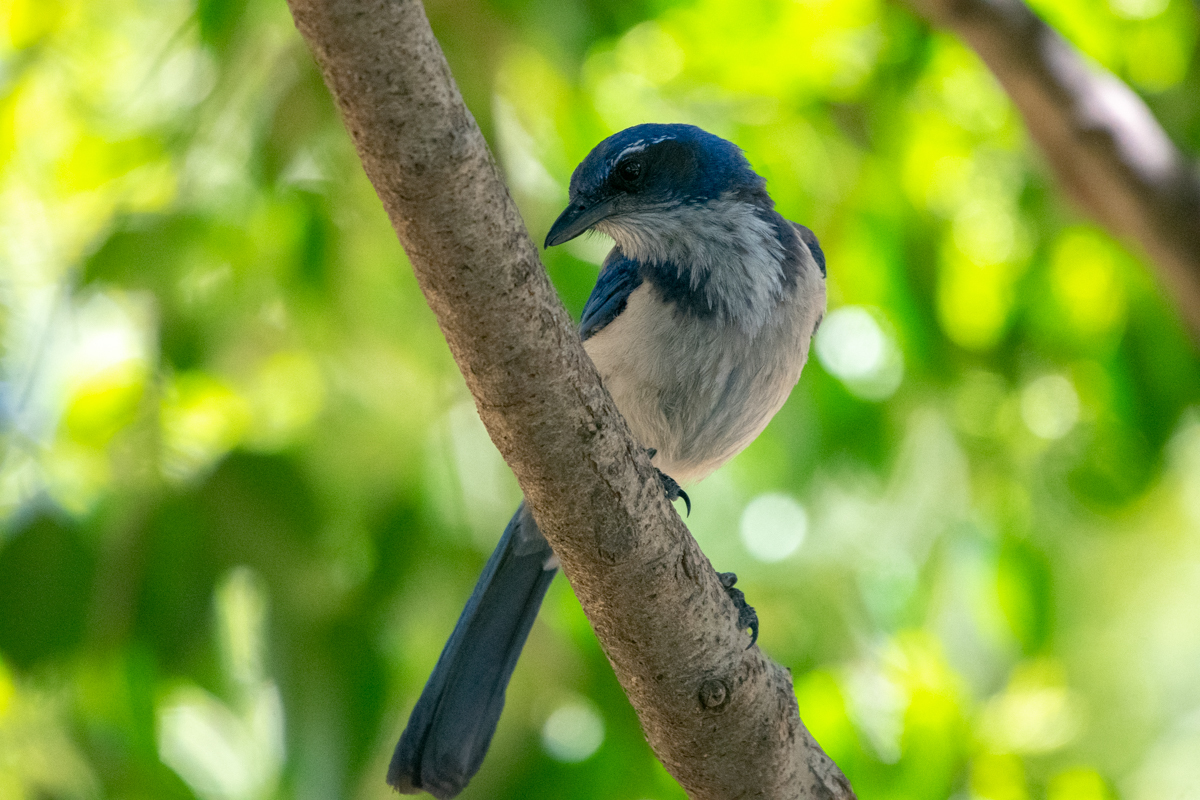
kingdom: Animalia
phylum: Chordata
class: Aves
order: Passeriformes
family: Corvidae
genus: Aphelocoma
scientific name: Aphelocoma californica
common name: California scrub-jay
